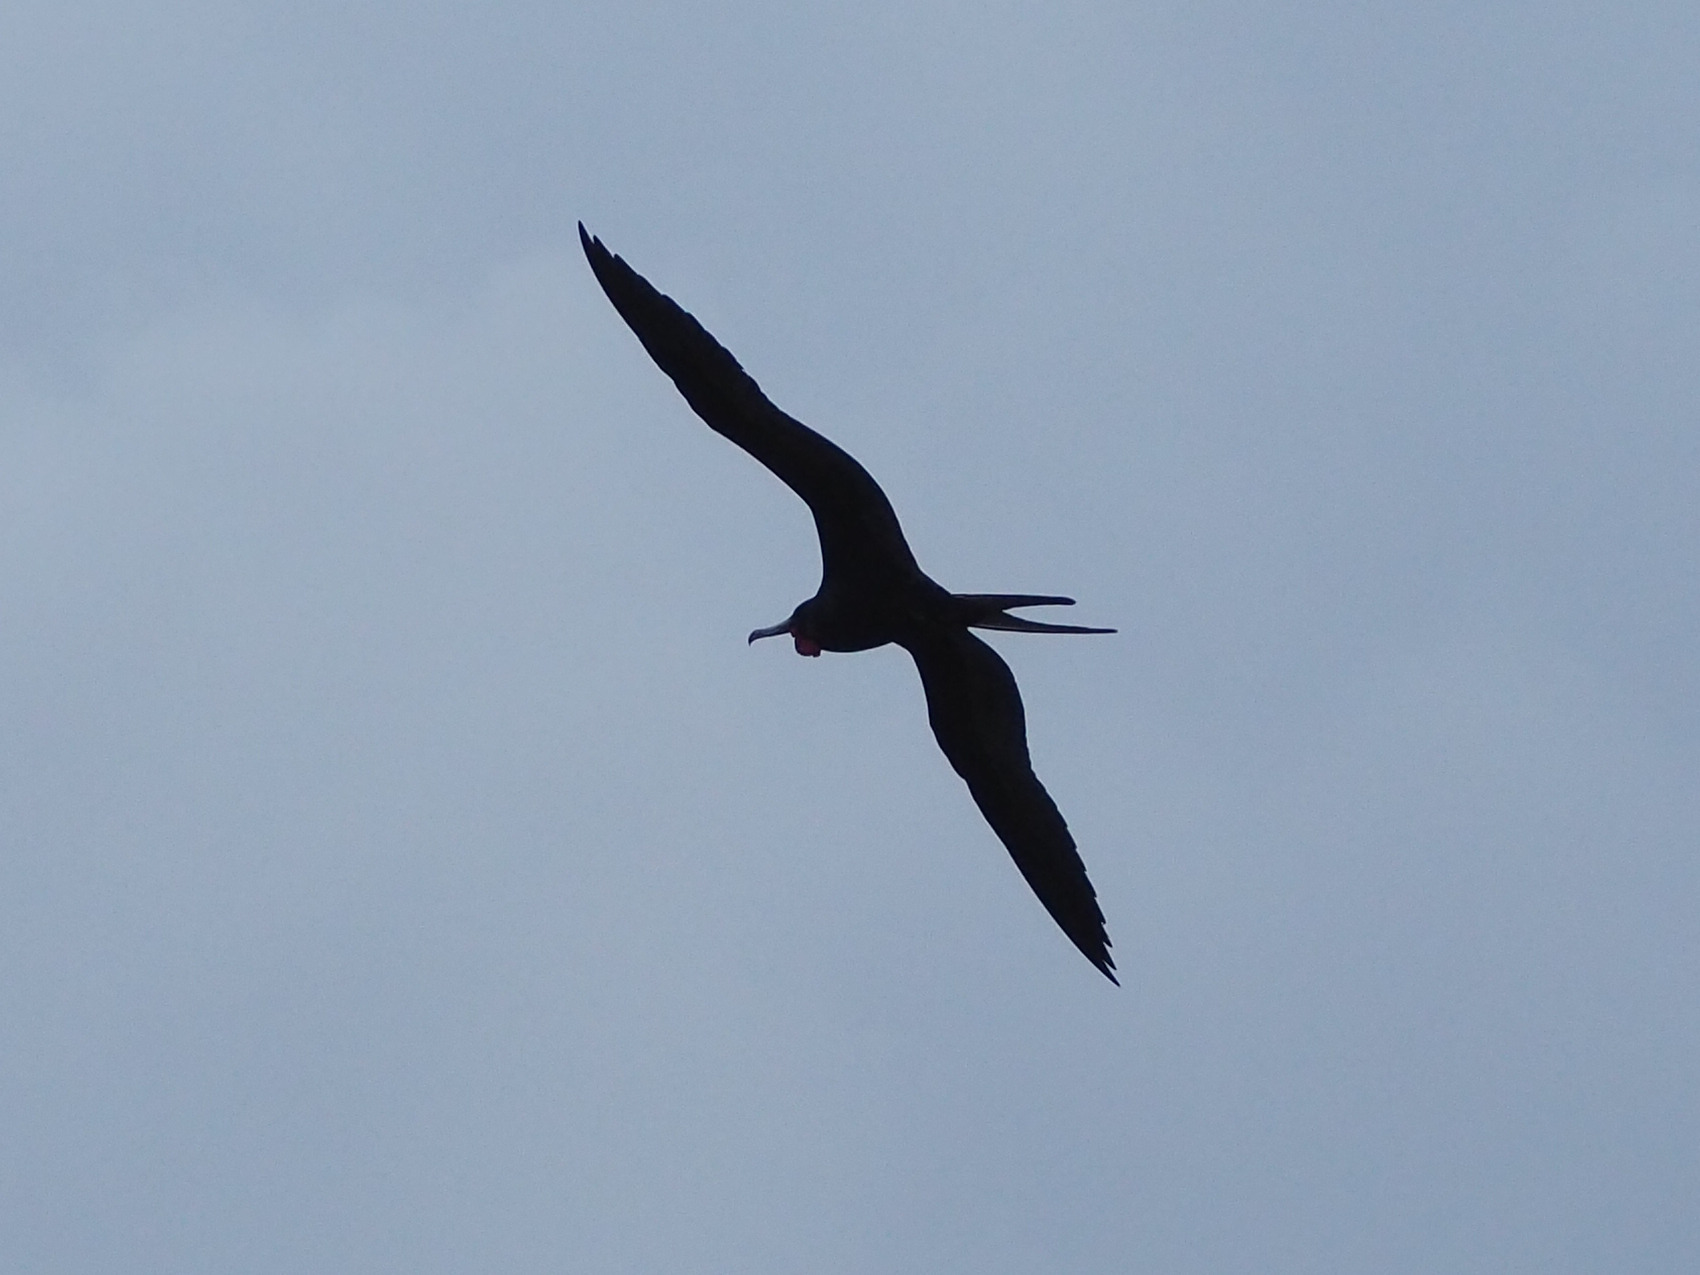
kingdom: Animalia
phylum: Chordata
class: Aves
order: Suliformes
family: Fregatidae
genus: Fregata
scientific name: Fregata magnificens
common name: Magnificent frigatebird
